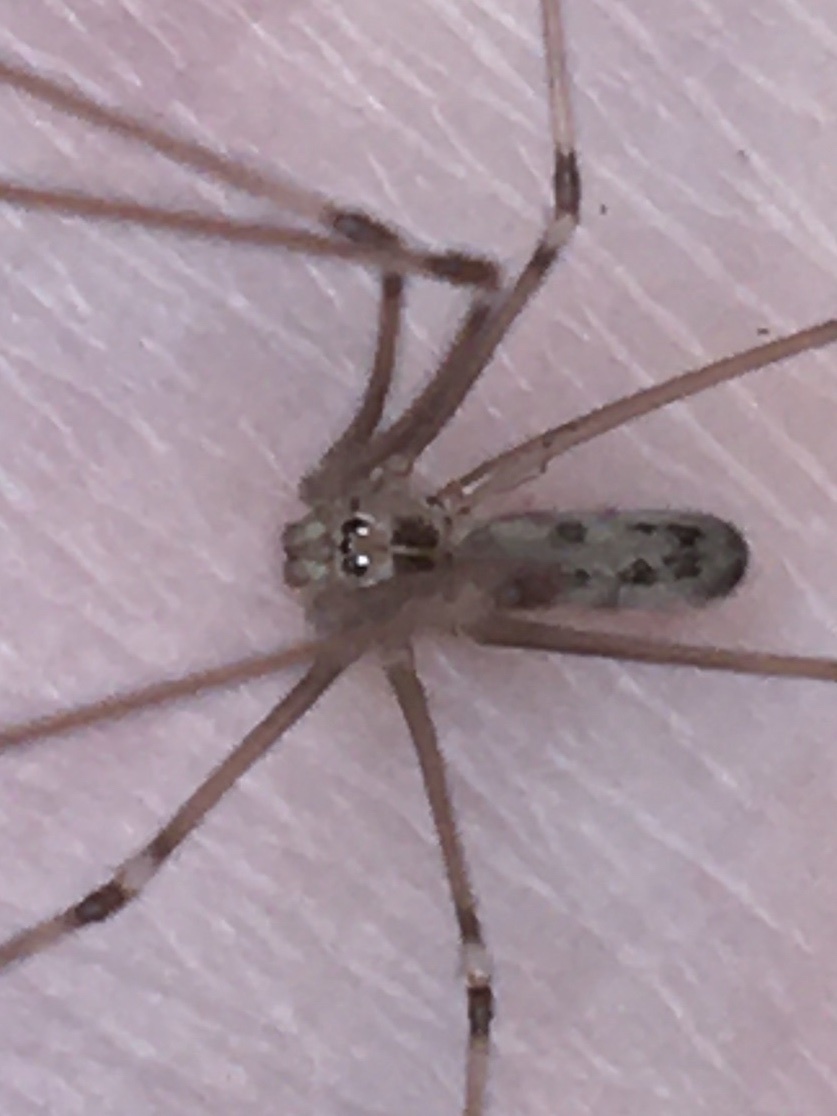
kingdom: Animalia
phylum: Arthropoda
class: Arachnida
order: Araneae
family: Pholcidae
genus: Pholcus
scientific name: Pholcus phalangioides
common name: Longbodied cellar spider
